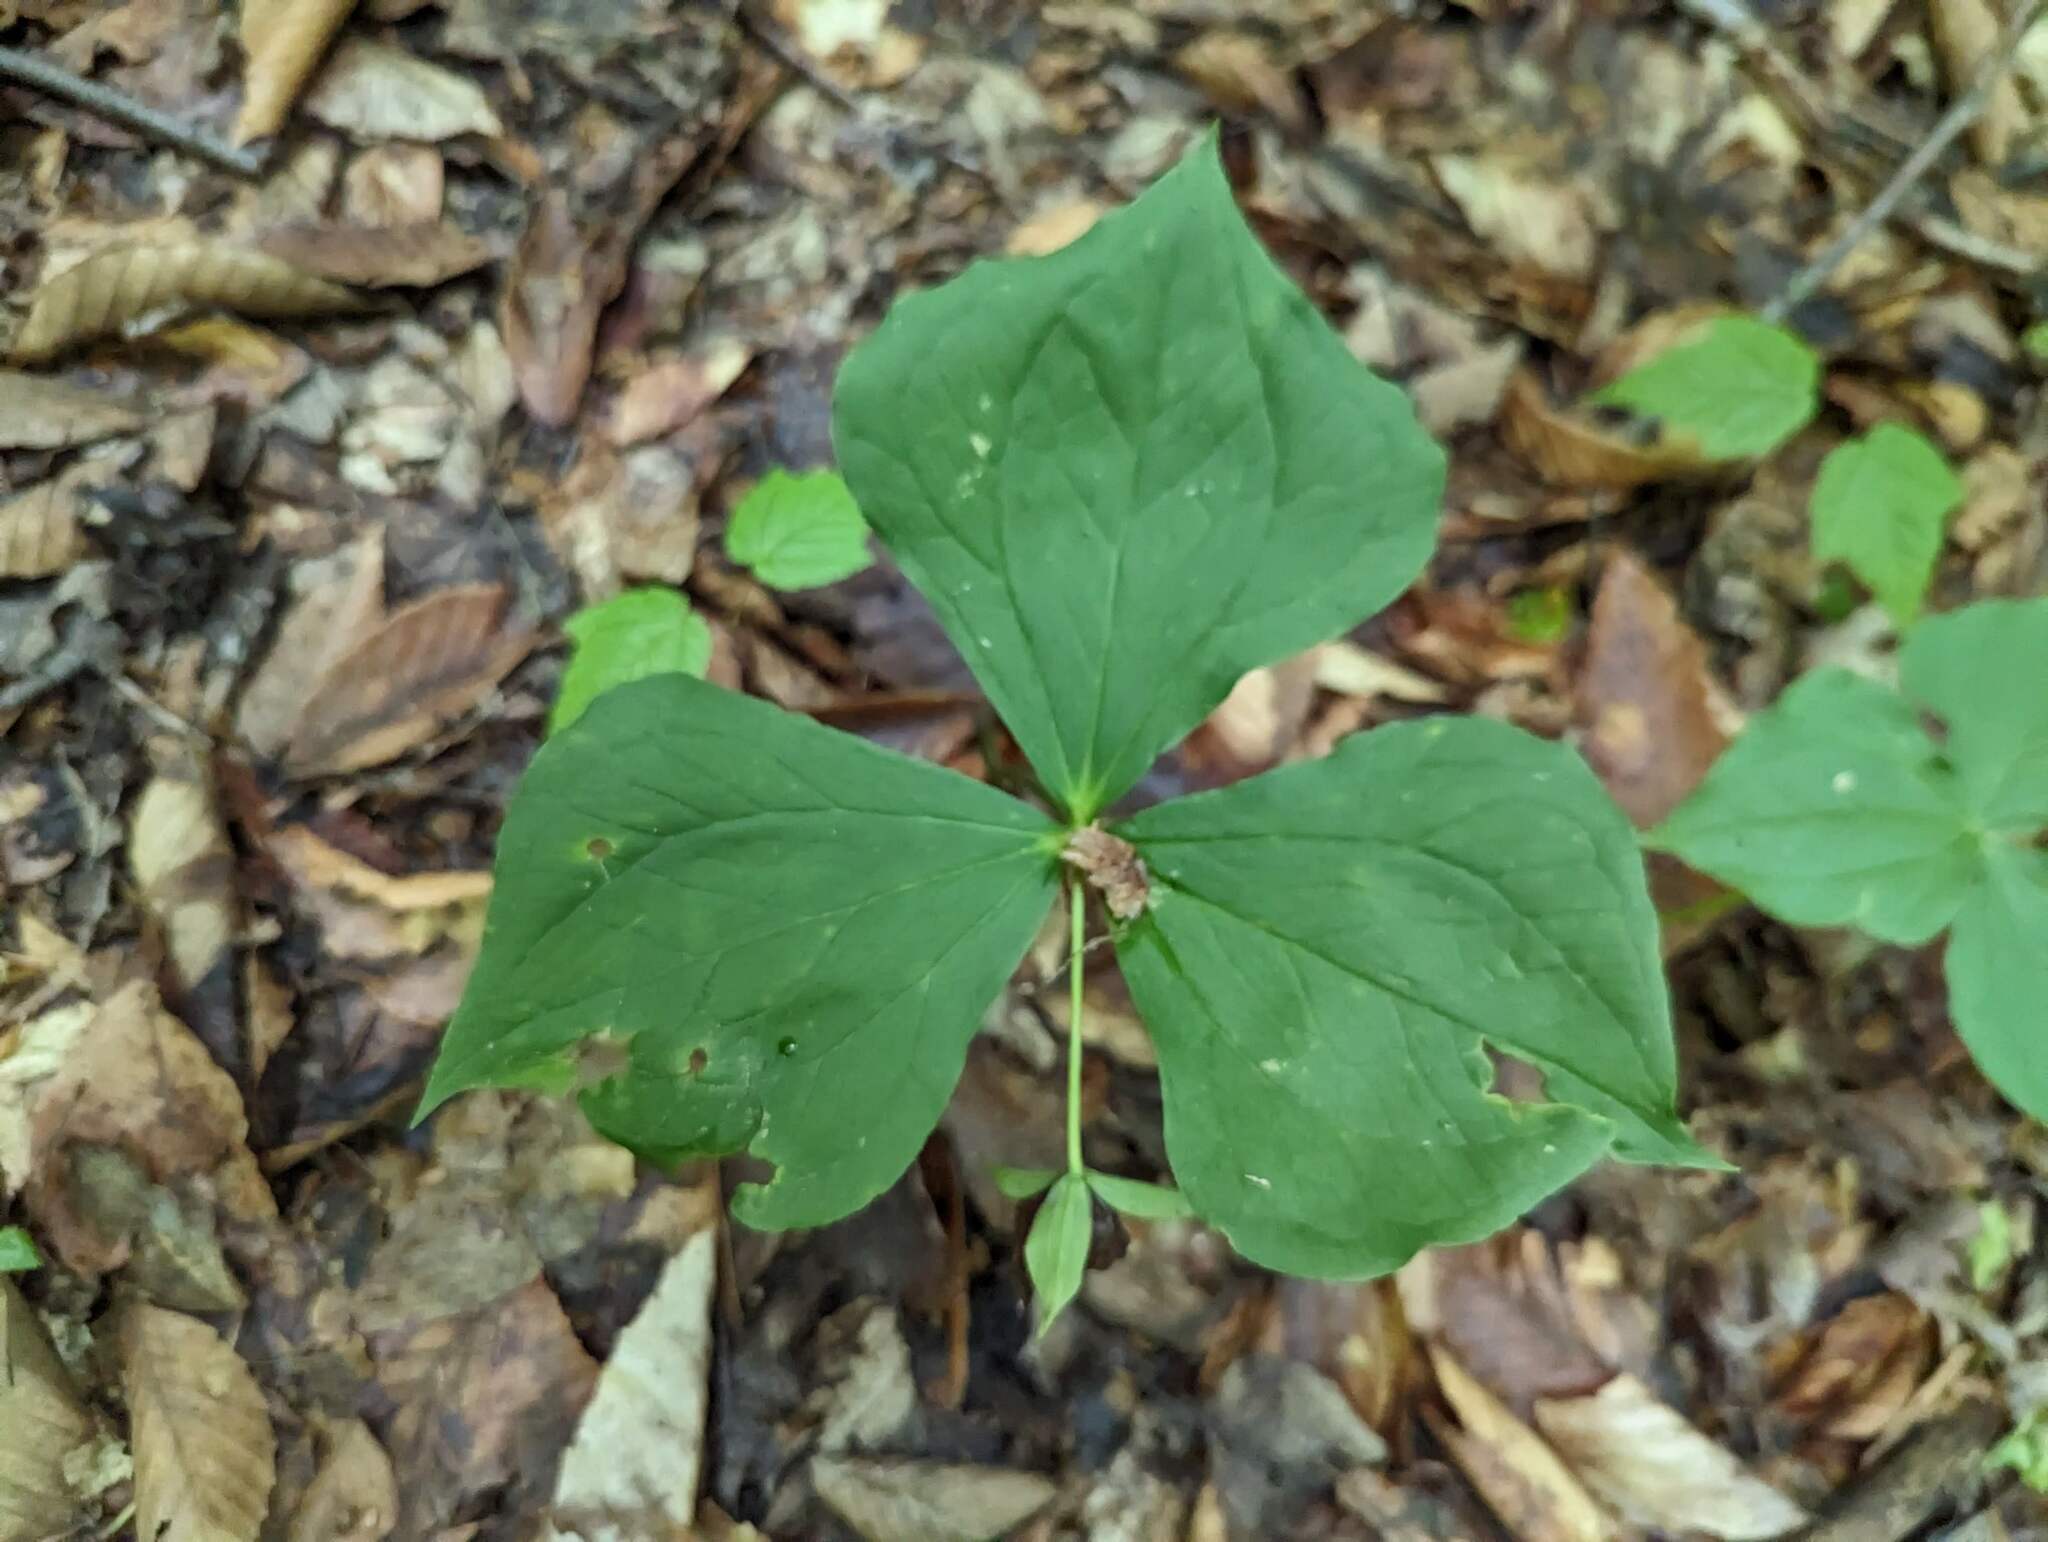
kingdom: Plantae
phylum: Tracheophyta
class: Liliopsida
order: Liliales
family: Melanthiaceae
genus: Trillium
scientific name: Trillium erectum
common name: Purple trillium
